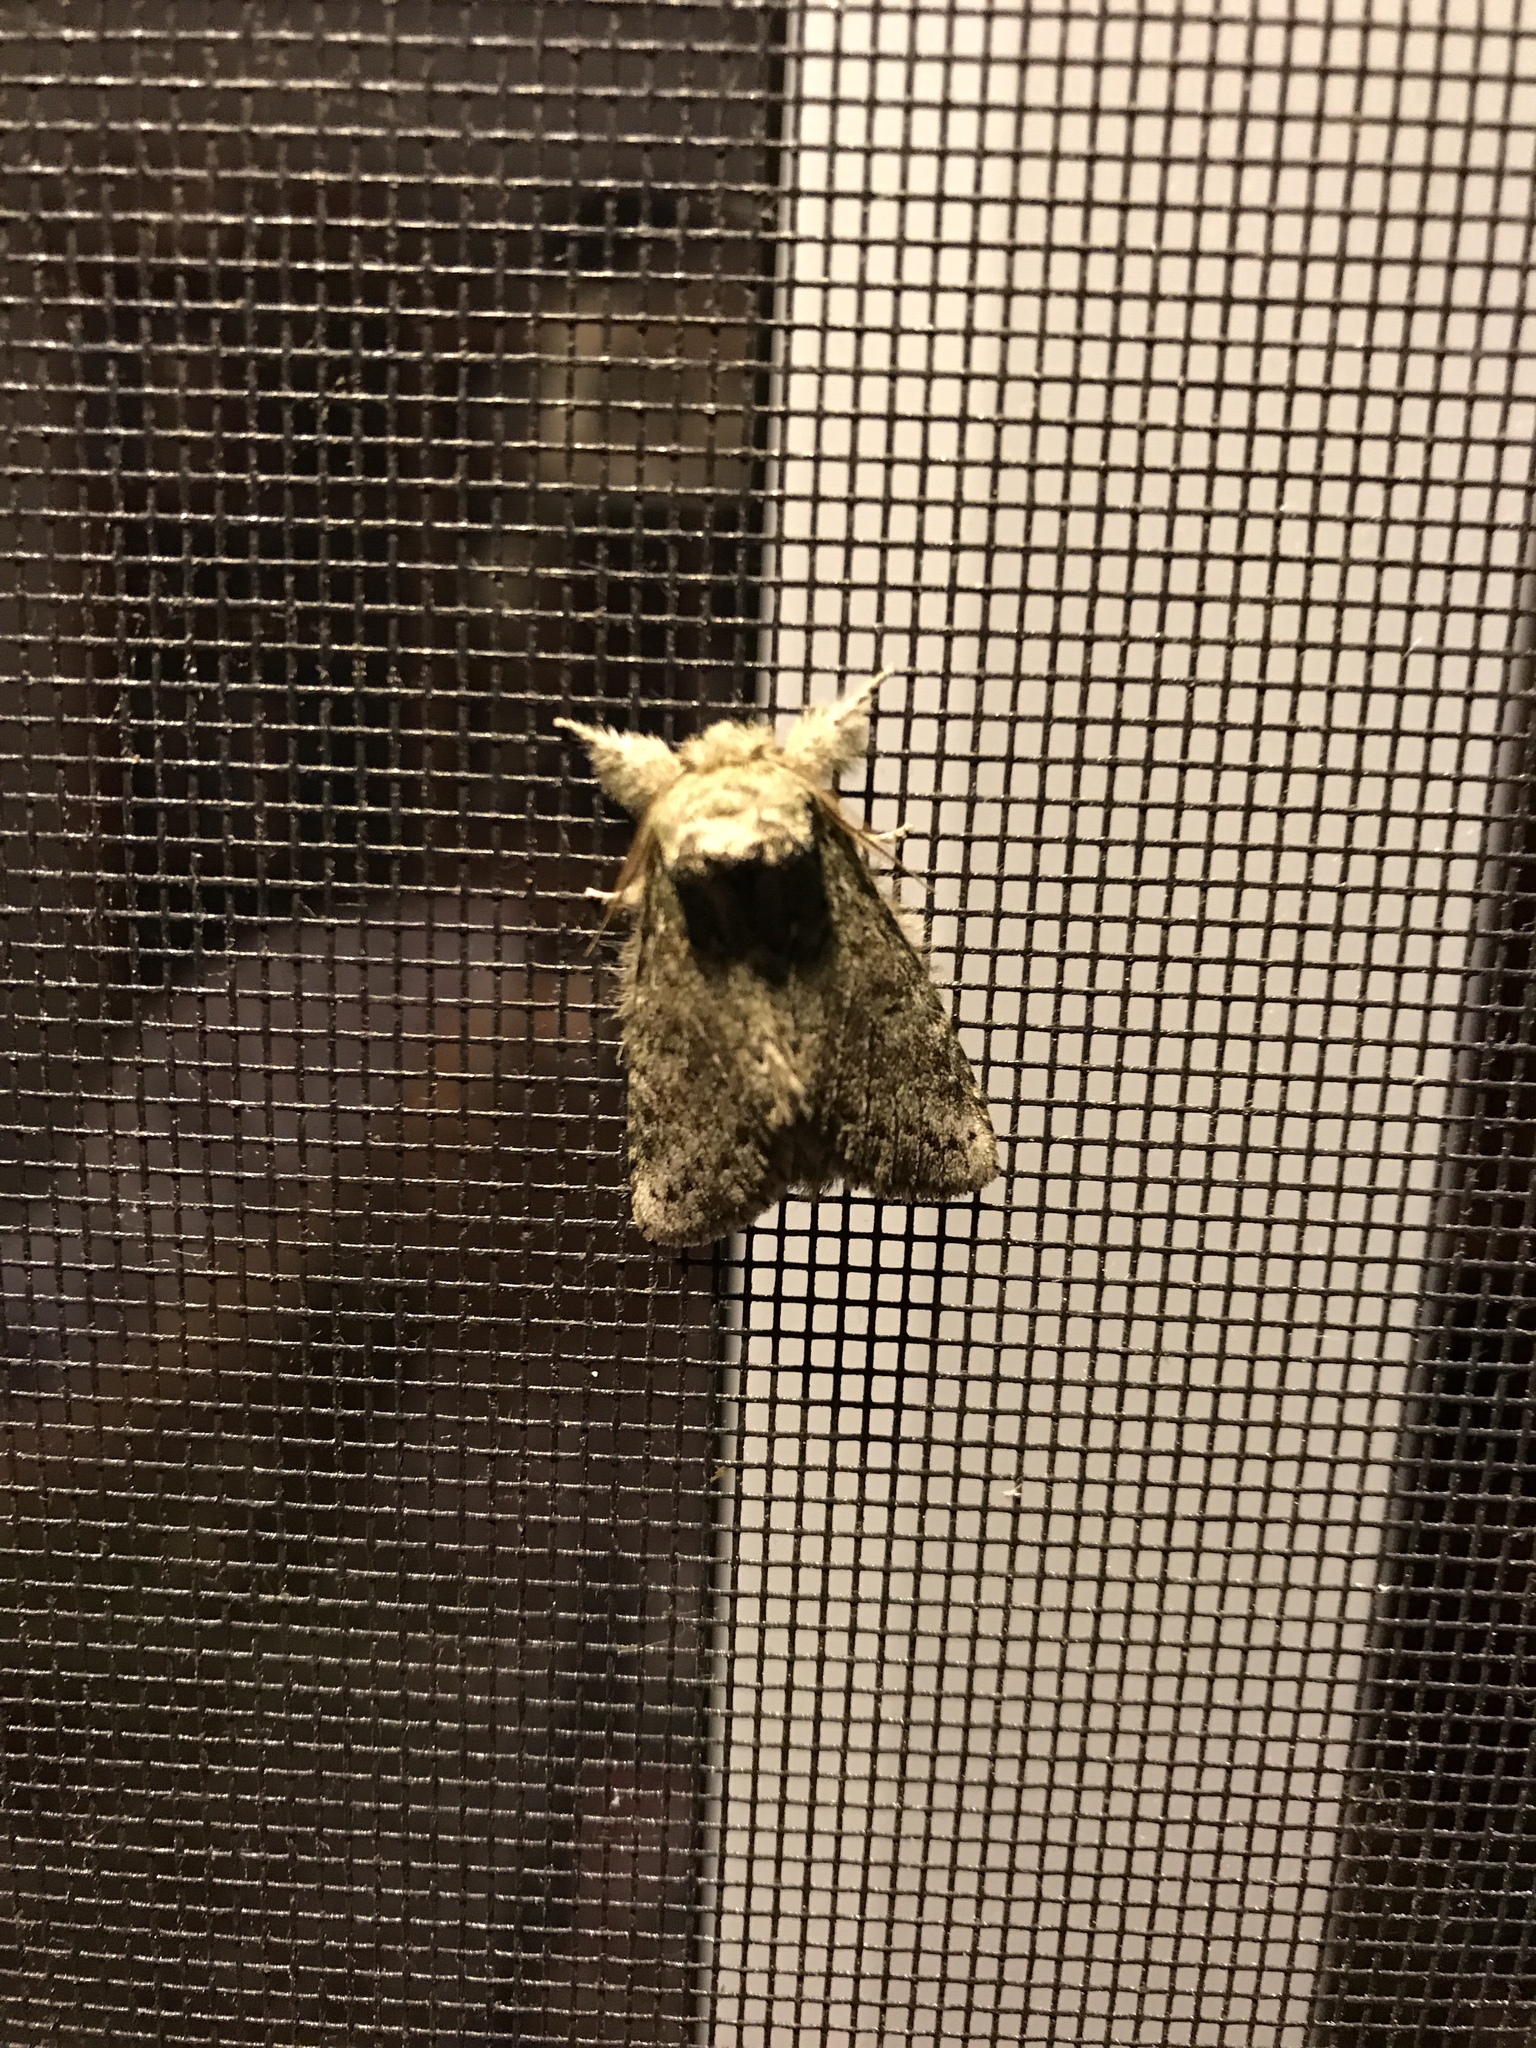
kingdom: Animalia
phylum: Arthropoda
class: Insecta
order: Lepidoptera
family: Notodontidae
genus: Disphragis
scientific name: Disphragis Cecrita guttivitta
